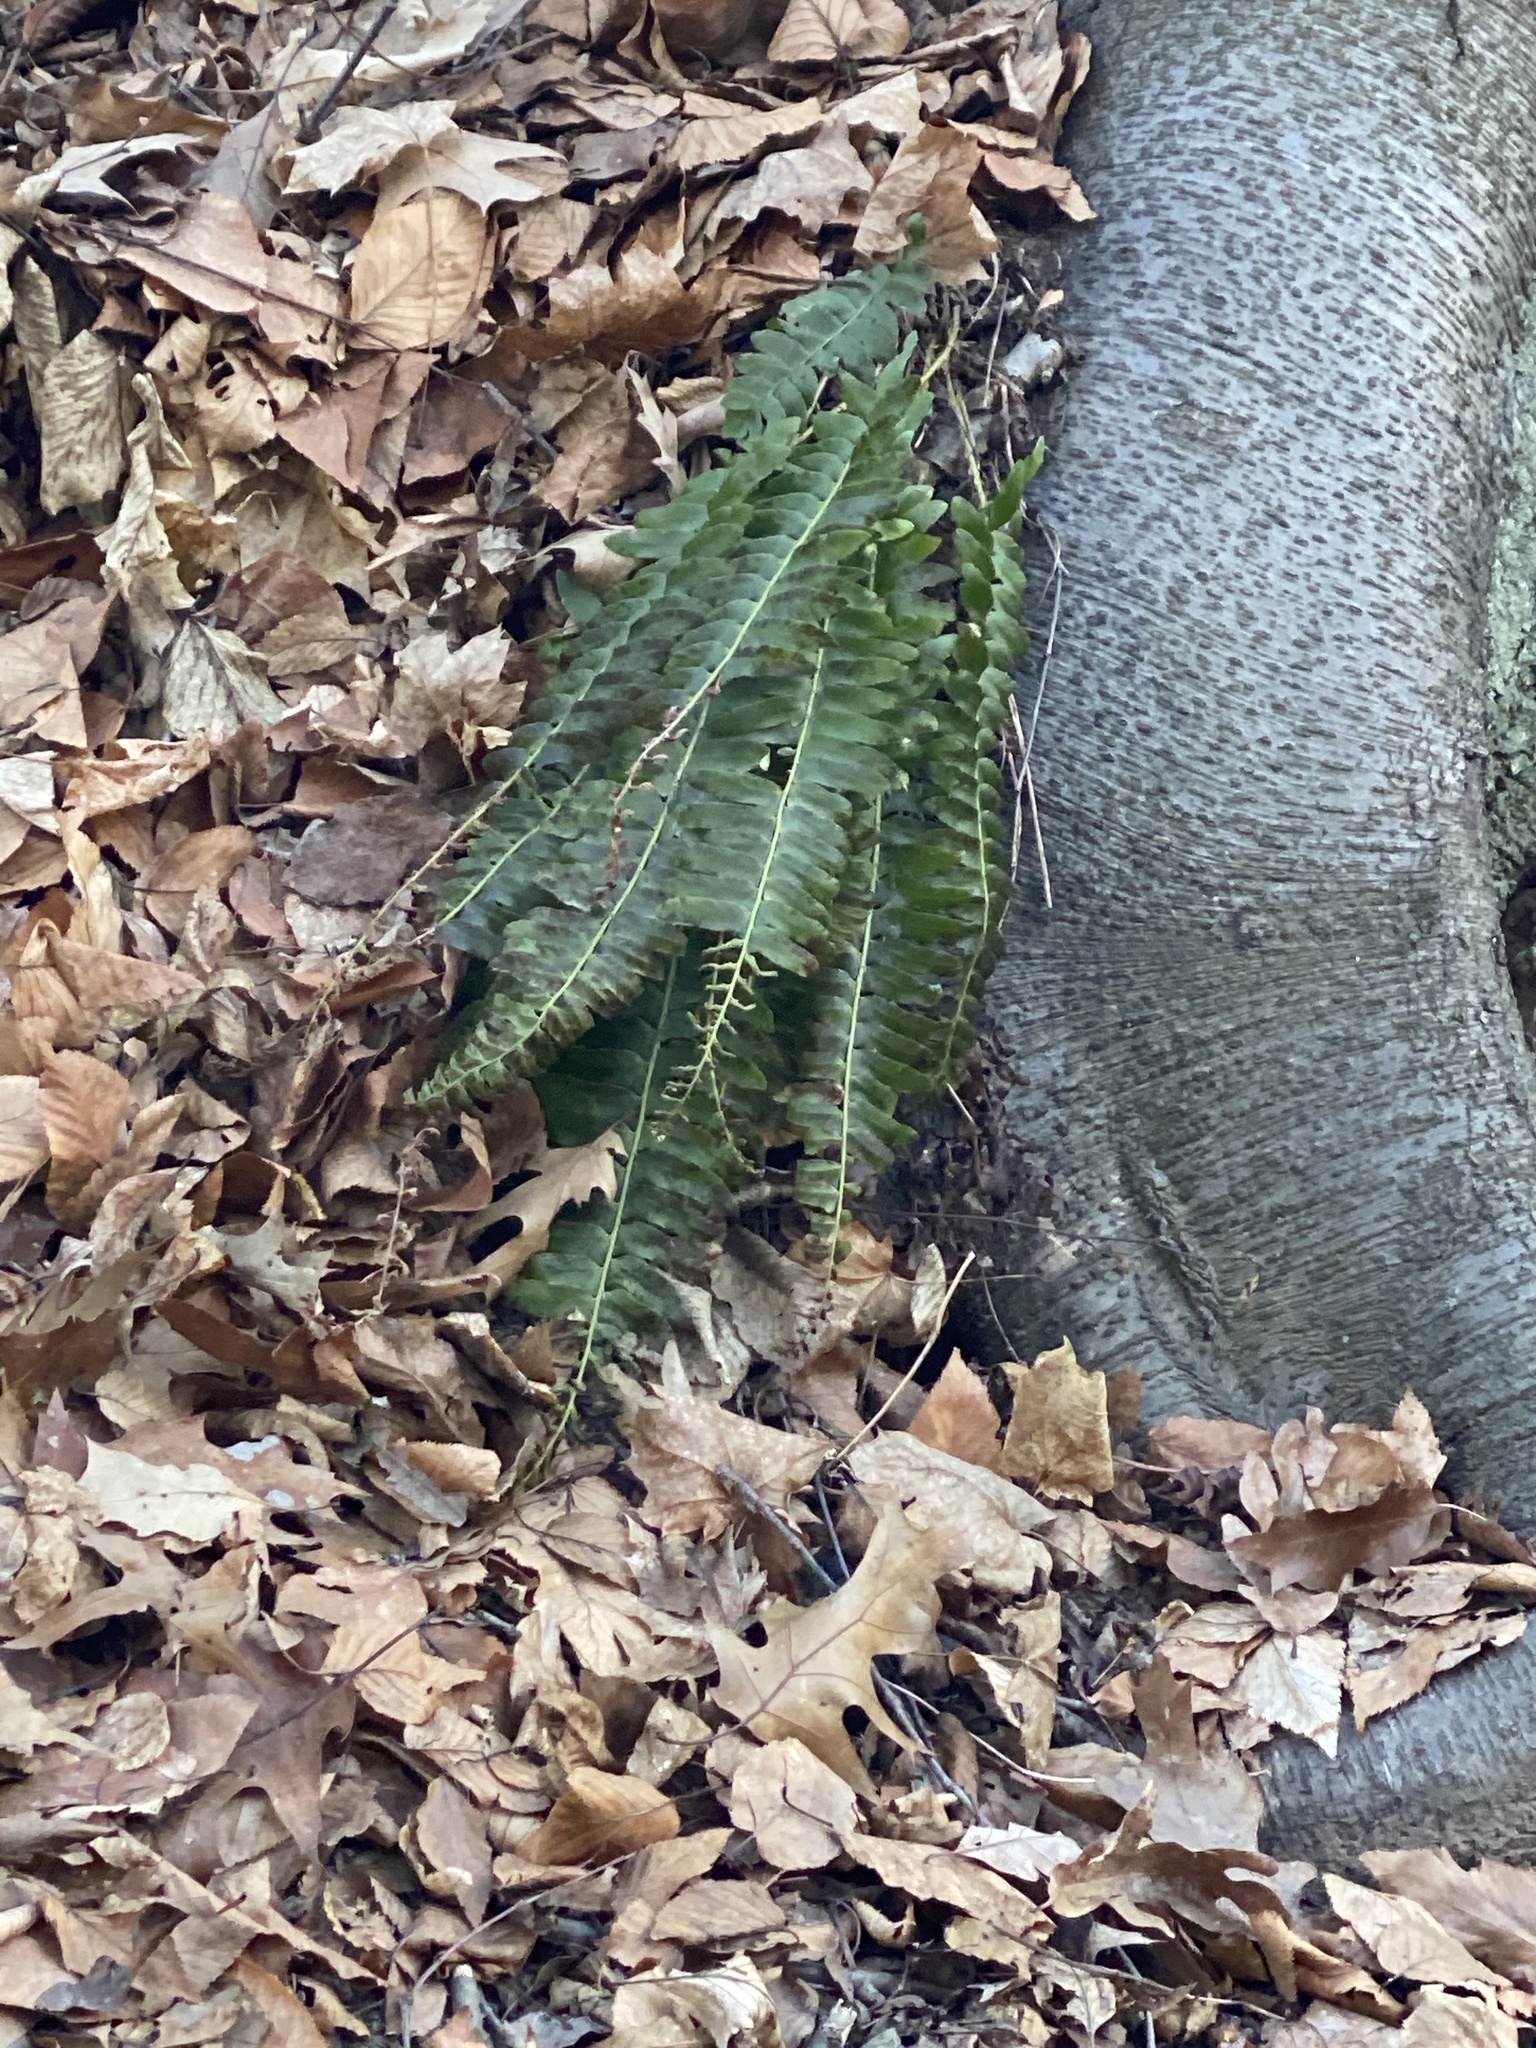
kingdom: Plantae
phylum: Tracheophyta
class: Polypodiopsida
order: Polypodiales
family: Dryopteridaceae
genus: Polystichum
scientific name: Polystichum acrostichoides
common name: Christmas fern
